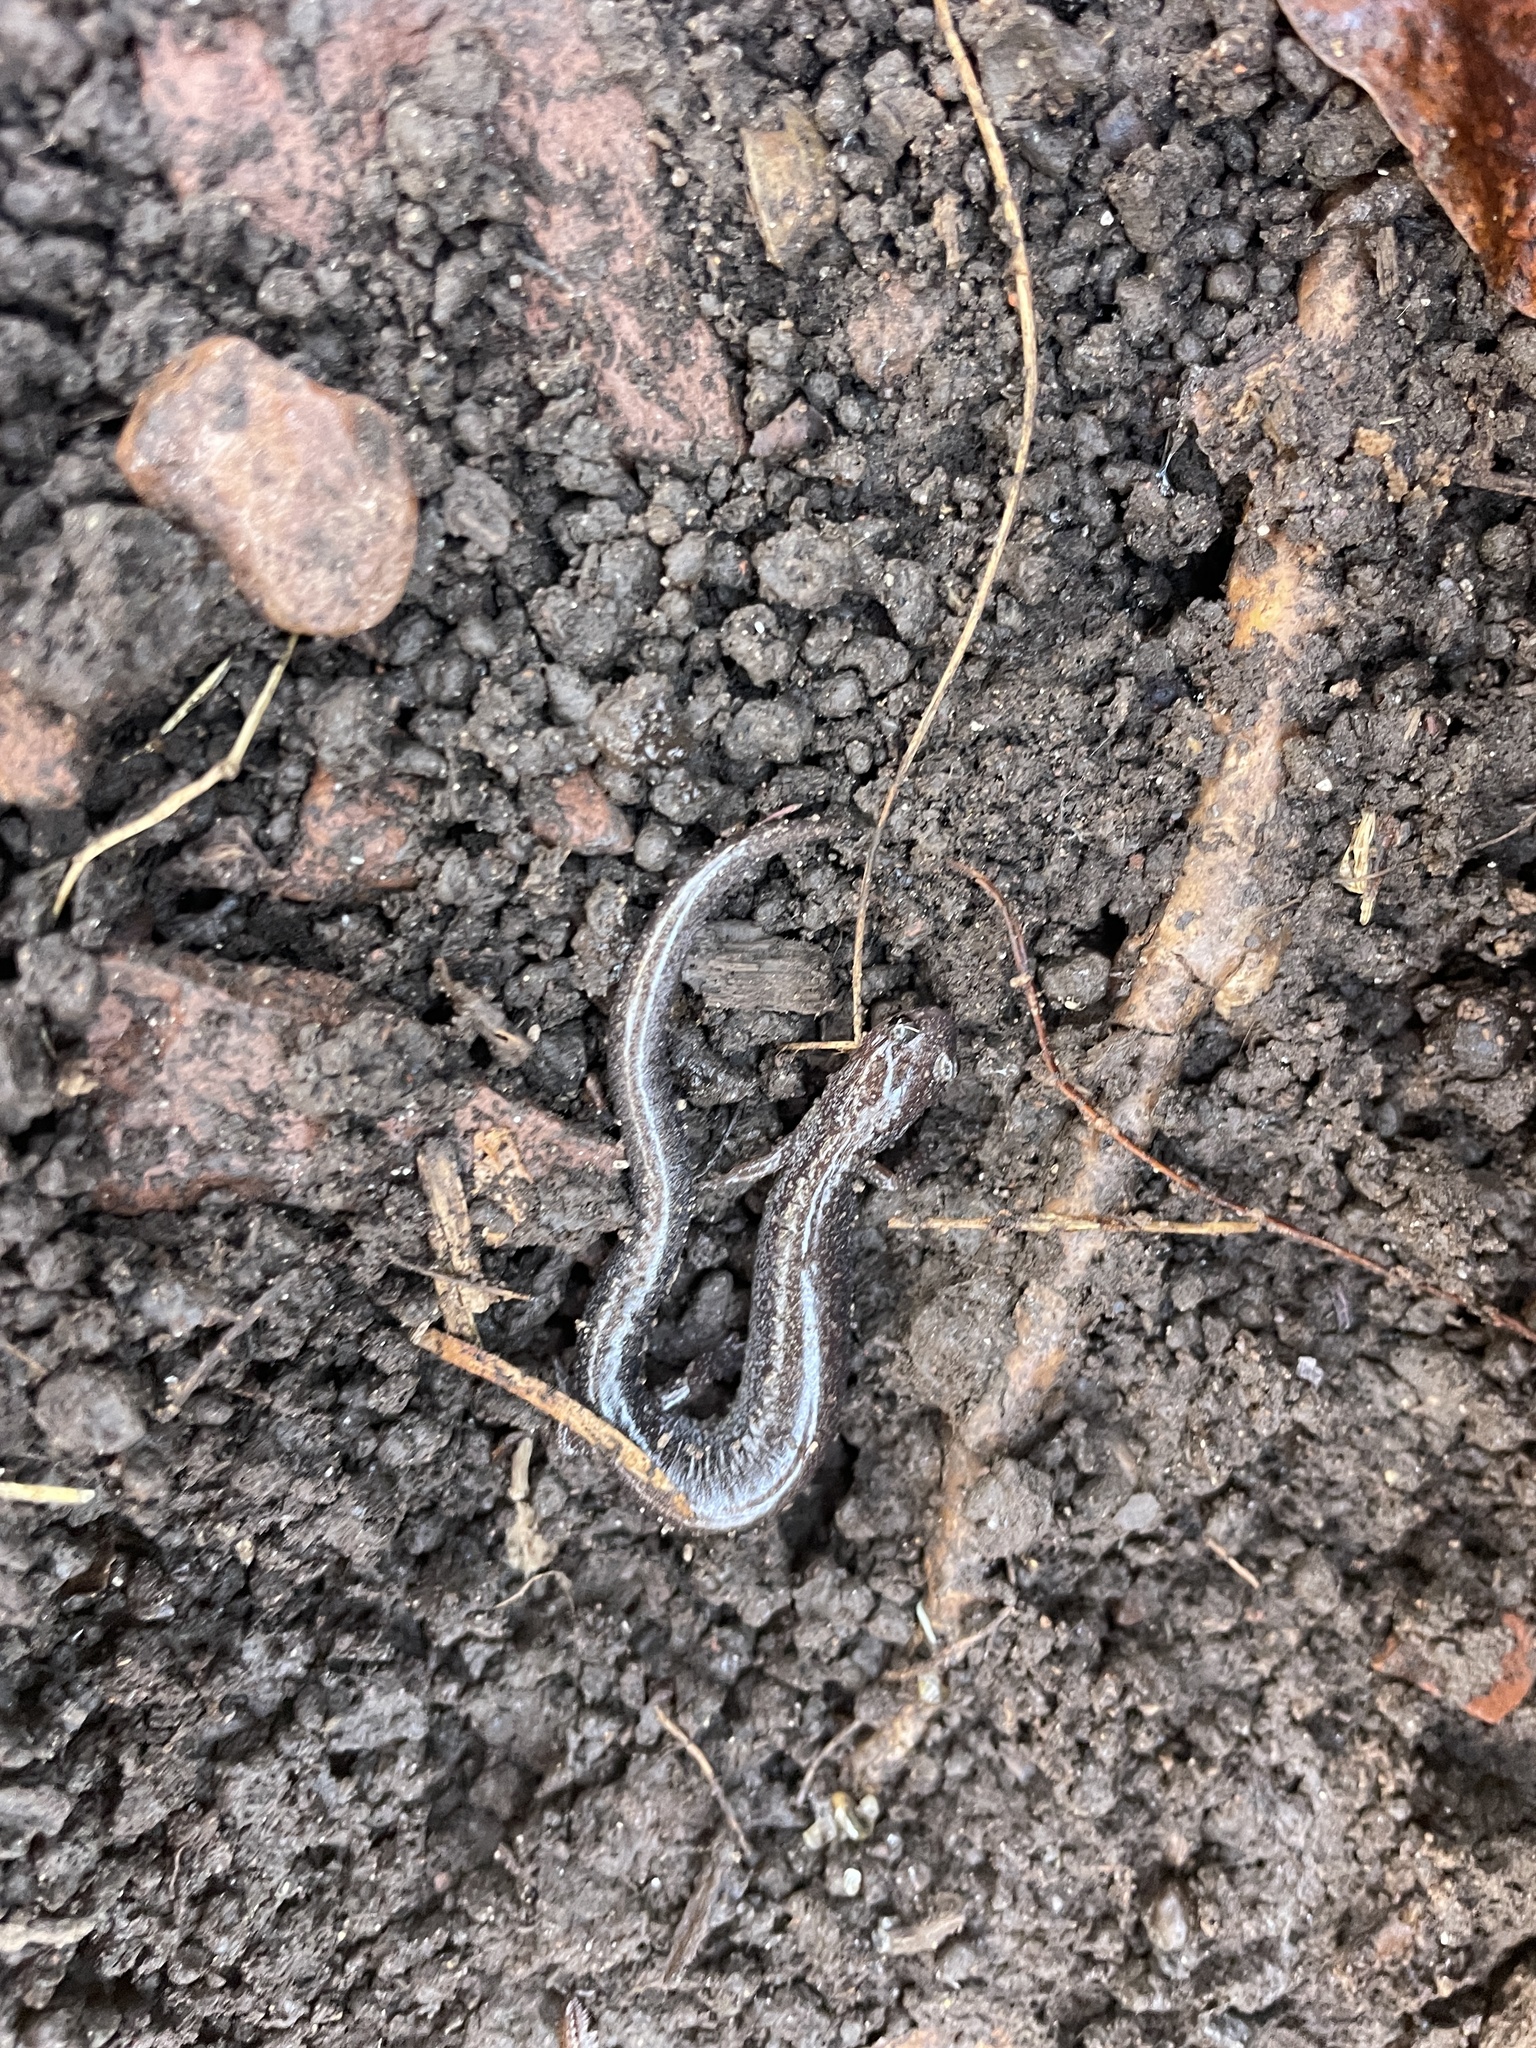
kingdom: Animalia
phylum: Chordata
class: Amphibia
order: Caudata
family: Plethodontidae
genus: Plethodon
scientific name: Plethodon cinereus
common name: Redback salamander
